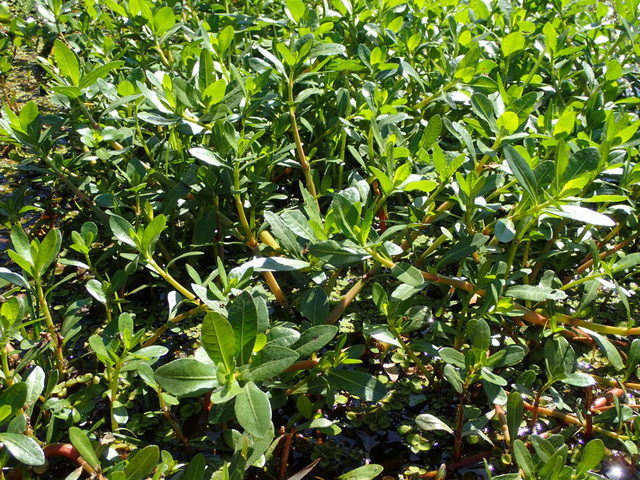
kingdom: Plantae
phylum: Tracheophyta
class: Magnoliopsida
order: Caryophyllales
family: Amaranthaceae
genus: Alternanthera
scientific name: Alternanthera philoxeroides
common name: Alligatorweed
